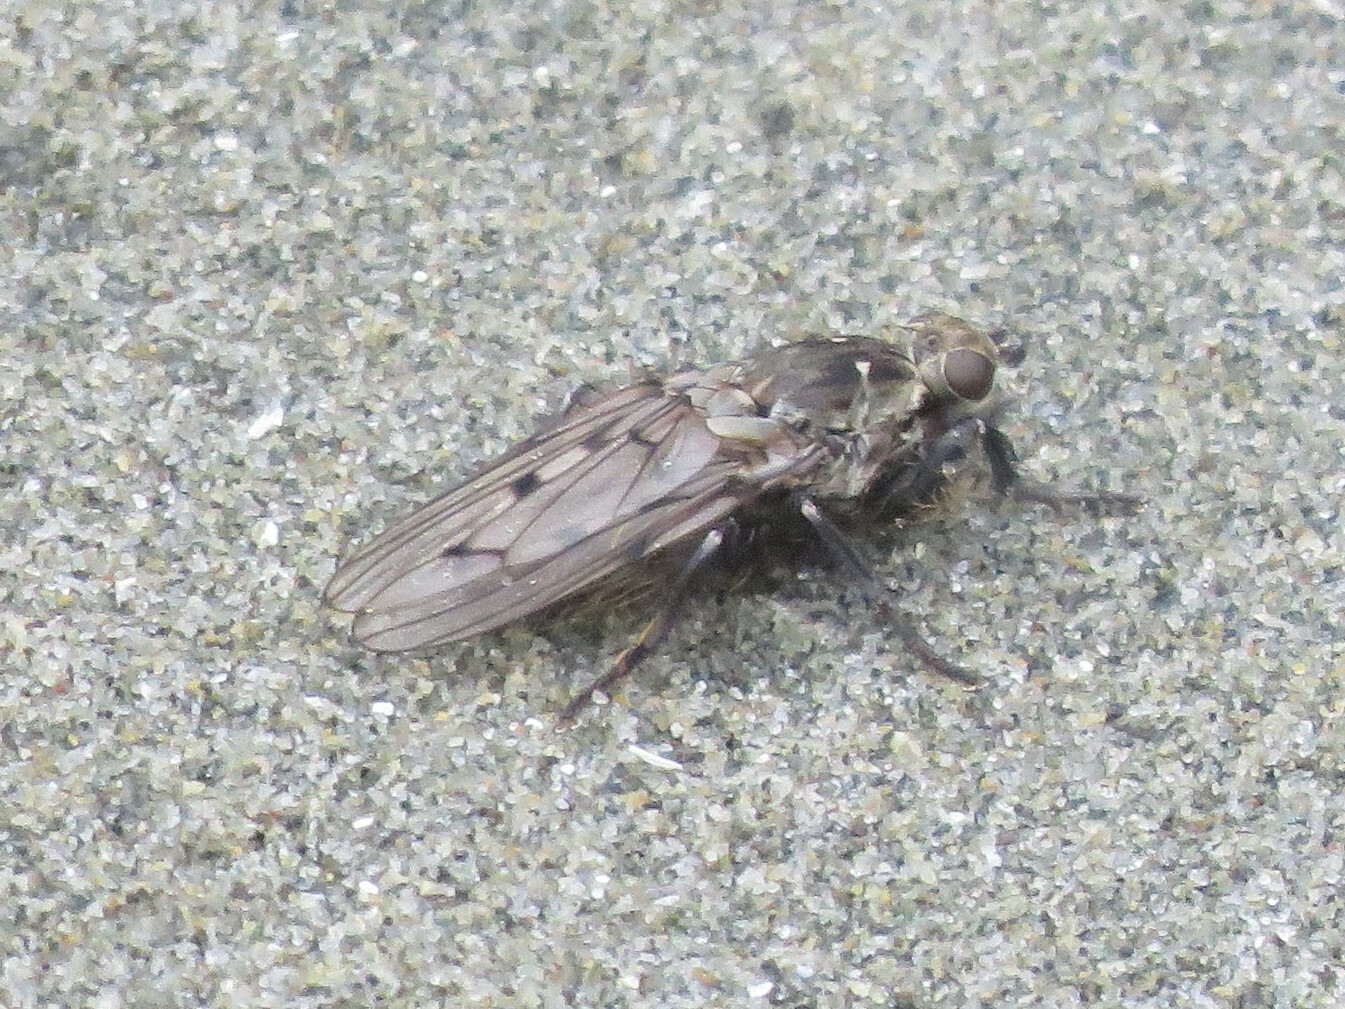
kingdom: Animalia
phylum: Arthropoda
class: Insecta
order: Diptera
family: Helcomyzidae
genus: Helcomyza
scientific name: Helcomyza mirabilis
